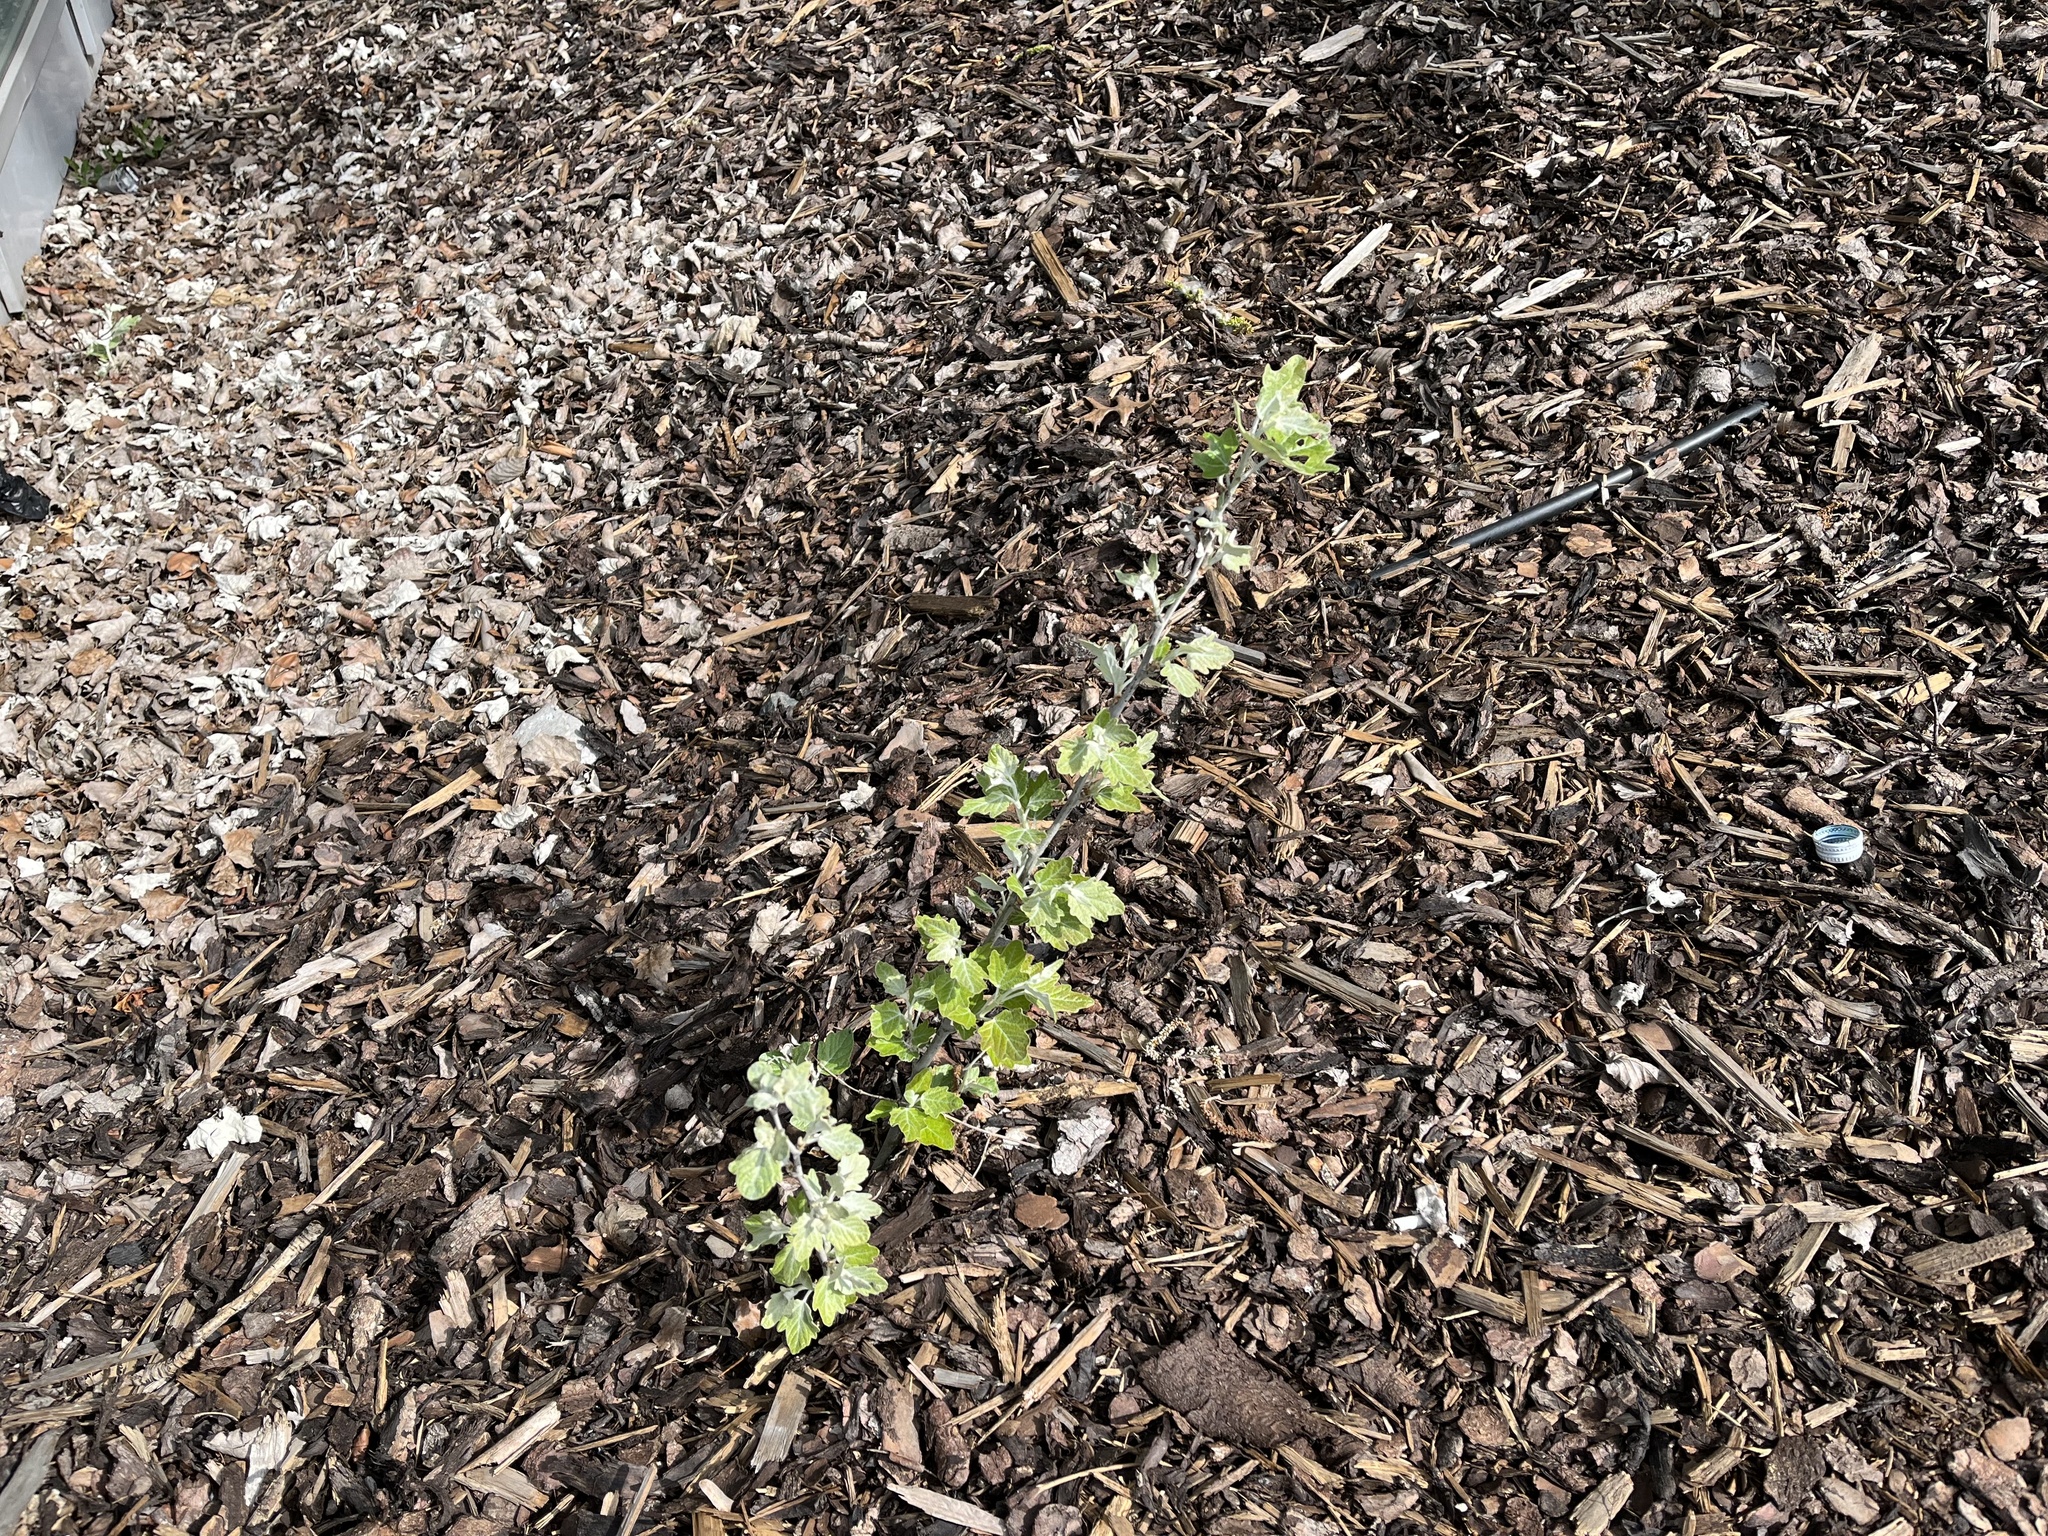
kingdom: Plantae
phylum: Tracheophyta
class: Magnoliopsida
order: Malpighiales
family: Salicaceae
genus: Populus
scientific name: Populus alba
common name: White poplar
